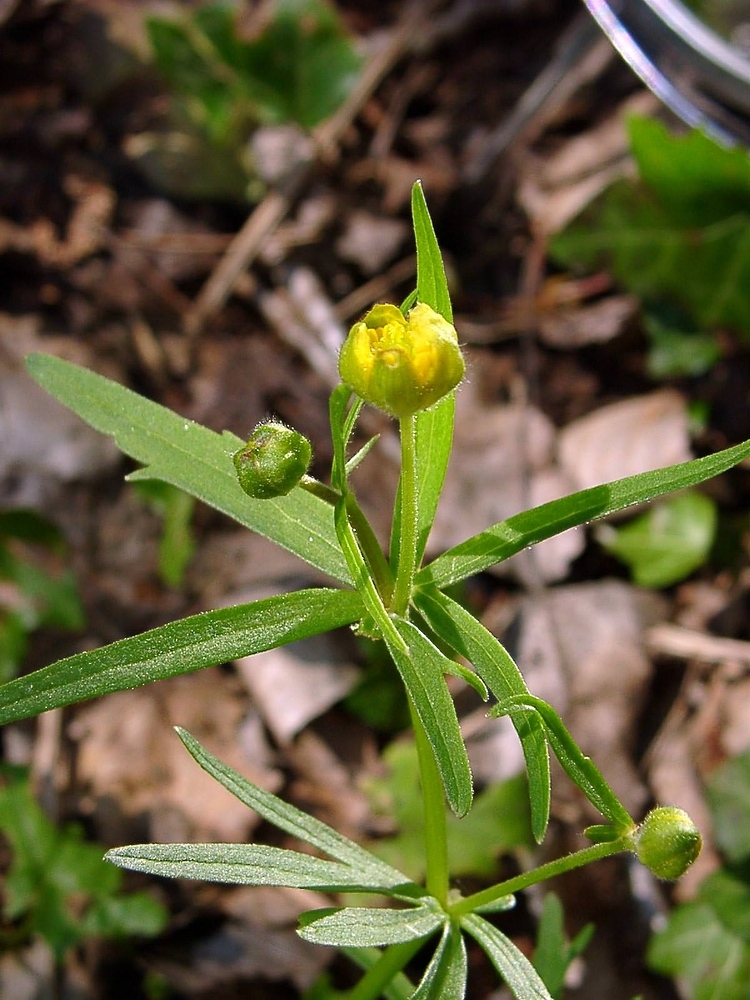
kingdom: Plantae
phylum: Tracheophyta
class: Magnoliopsida
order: Ranunculales
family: Ranunculaceae
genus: Ranunculus
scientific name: Ranunculus auricomus
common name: Goldilocks buttercup
